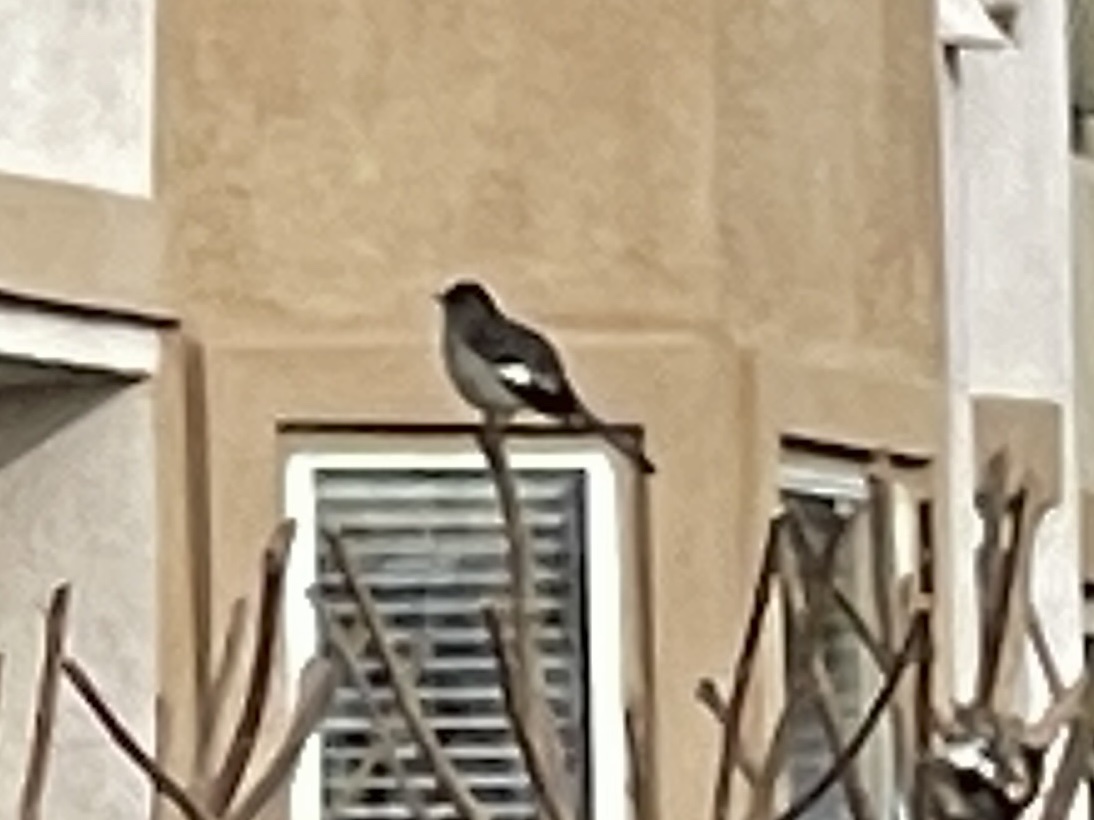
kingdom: Animalia
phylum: Chordata
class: Aves
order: Passeriformes
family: Mimidae
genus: Mimus
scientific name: Mimus polyglottos
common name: Northern mockingbird
